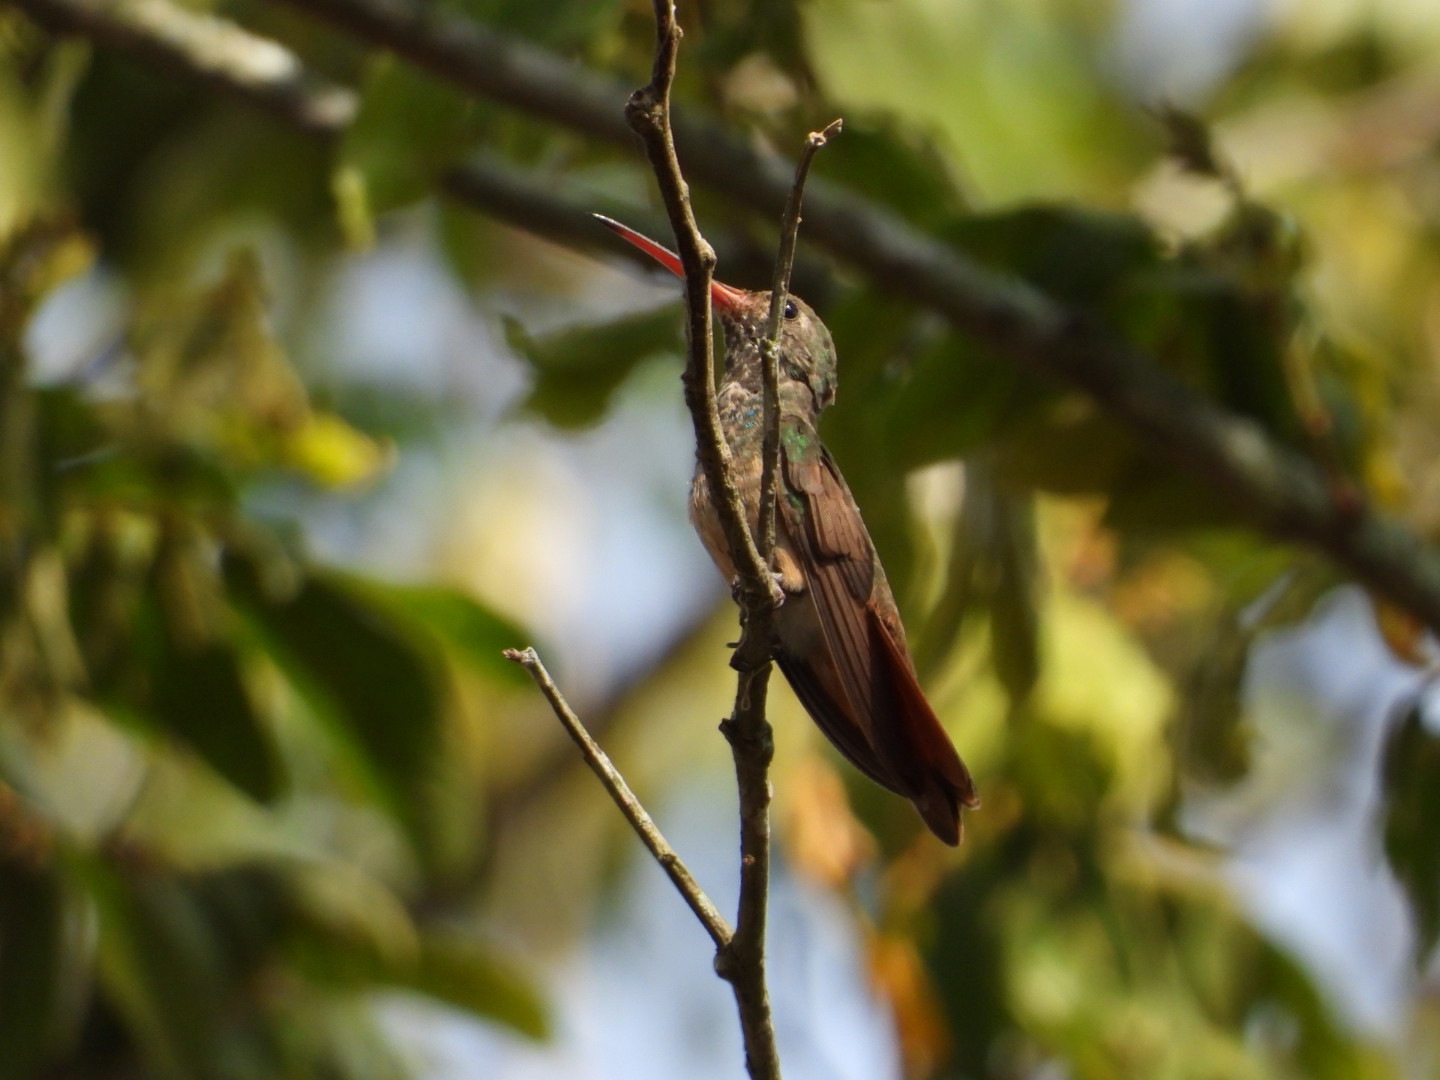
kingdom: Animalia
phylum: Chordata
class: Aves
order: Apodiformes
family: Trochilidae
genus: Amazilia
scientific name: Amazilia yucatanensis
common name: Buff-bellied hummingbird
